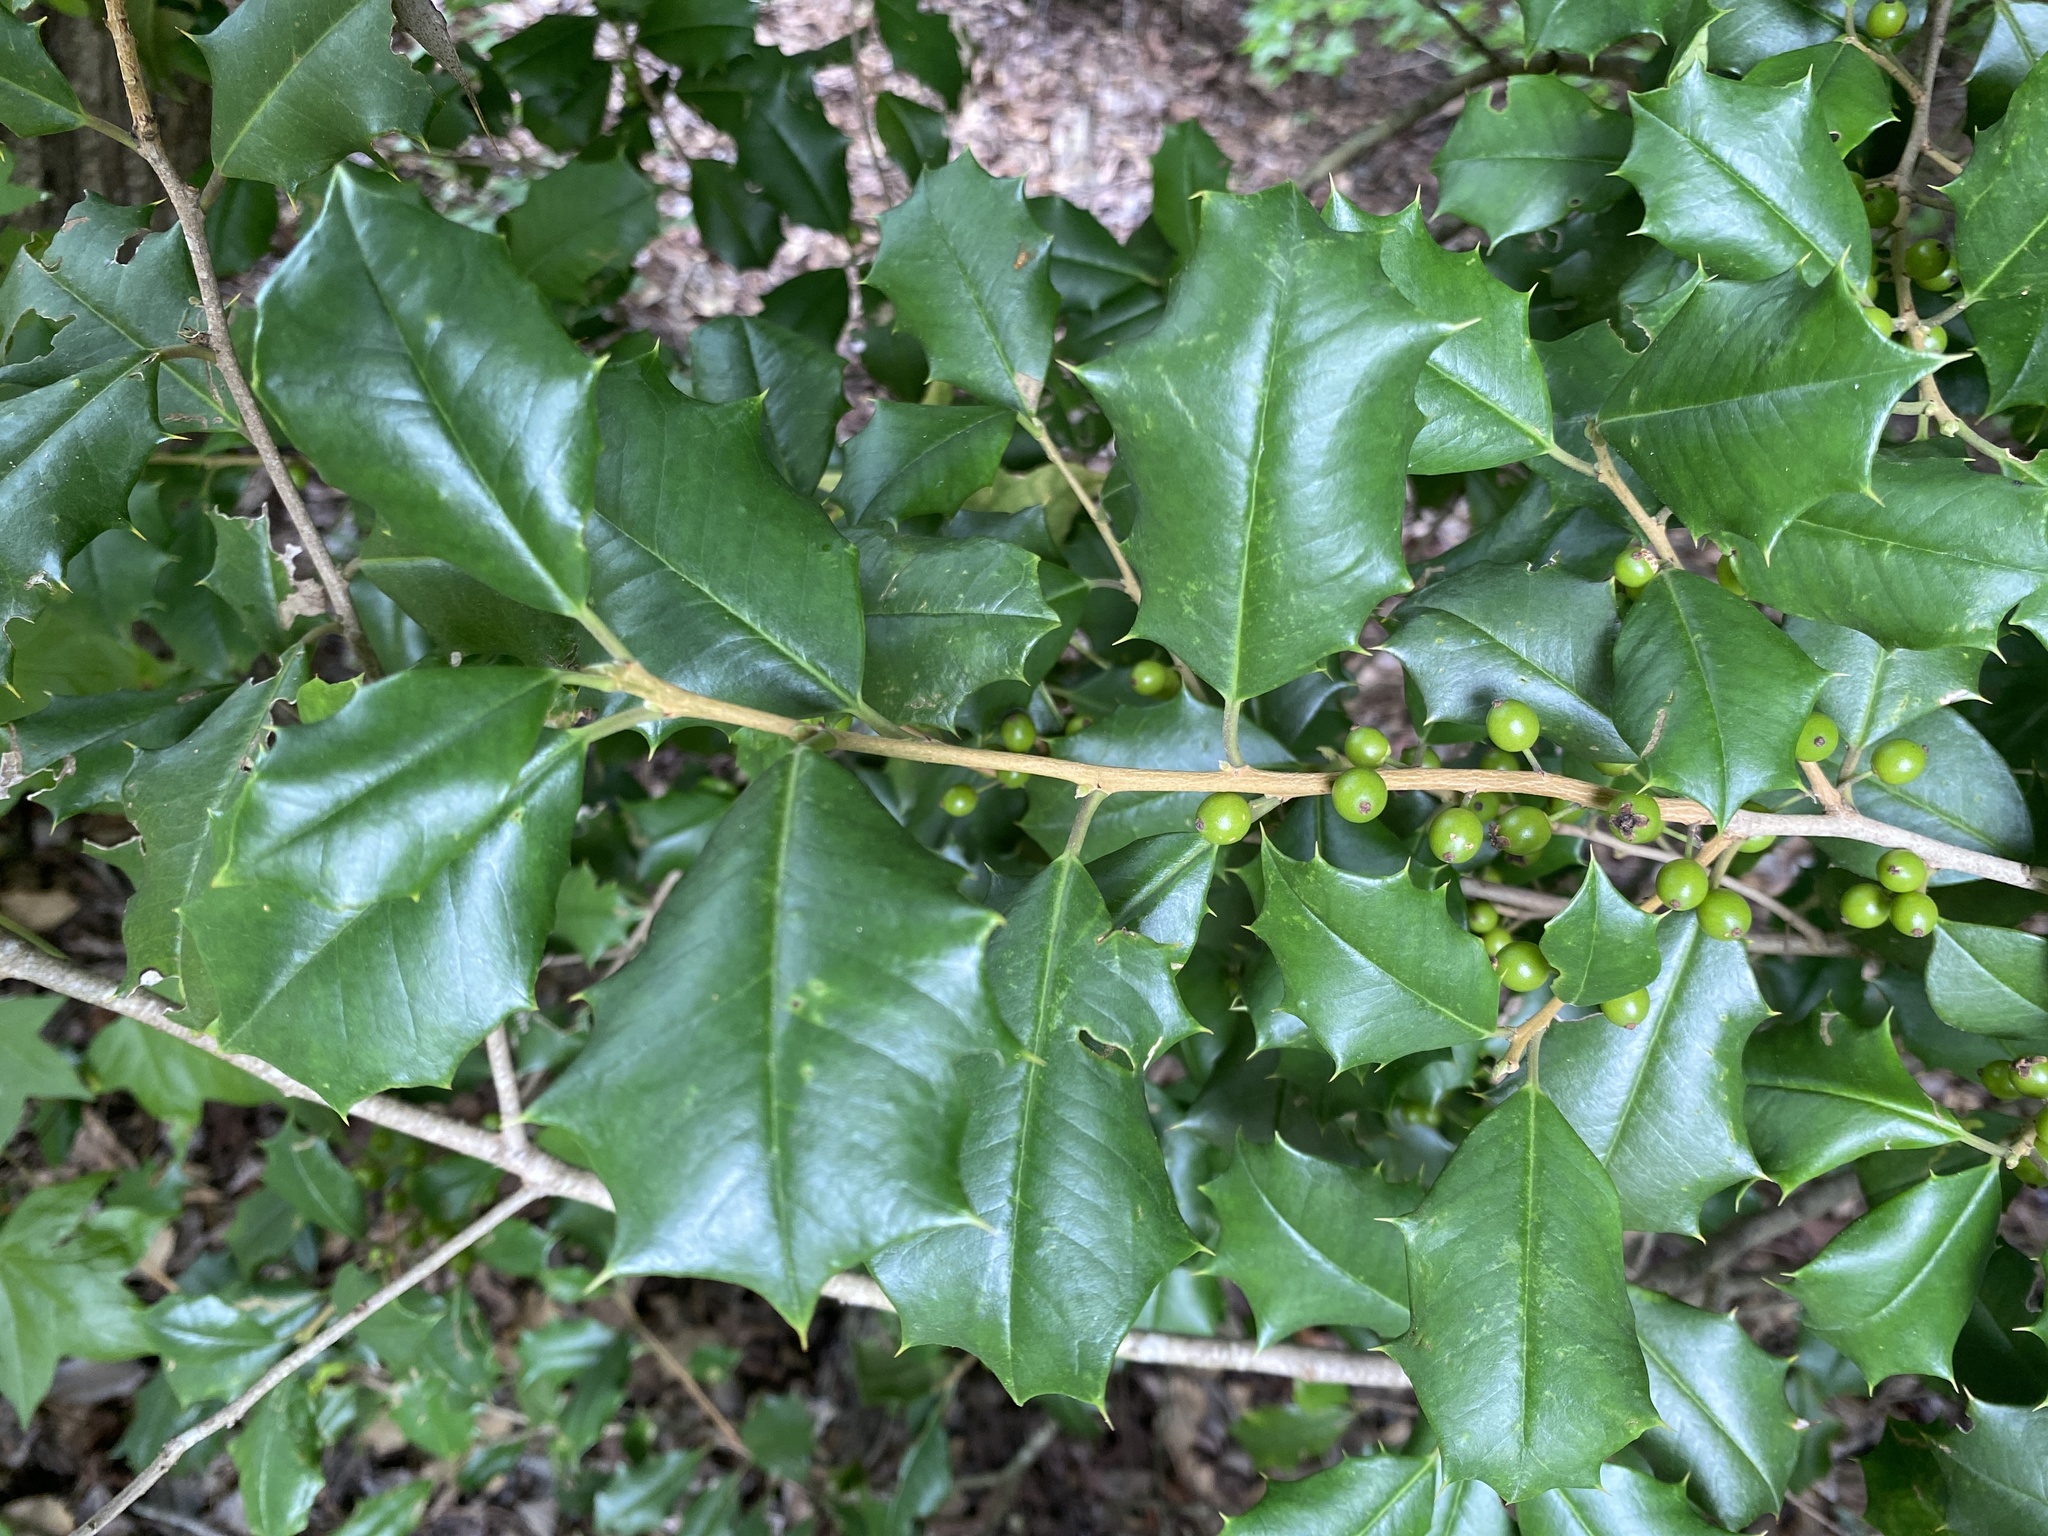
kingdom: Plantae
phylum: Tracheophyta
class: Magnoliopsida
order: Aquifoliales
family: Aquifoliaceae
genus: Ilex
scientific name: Ilex opaca
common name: American holly
